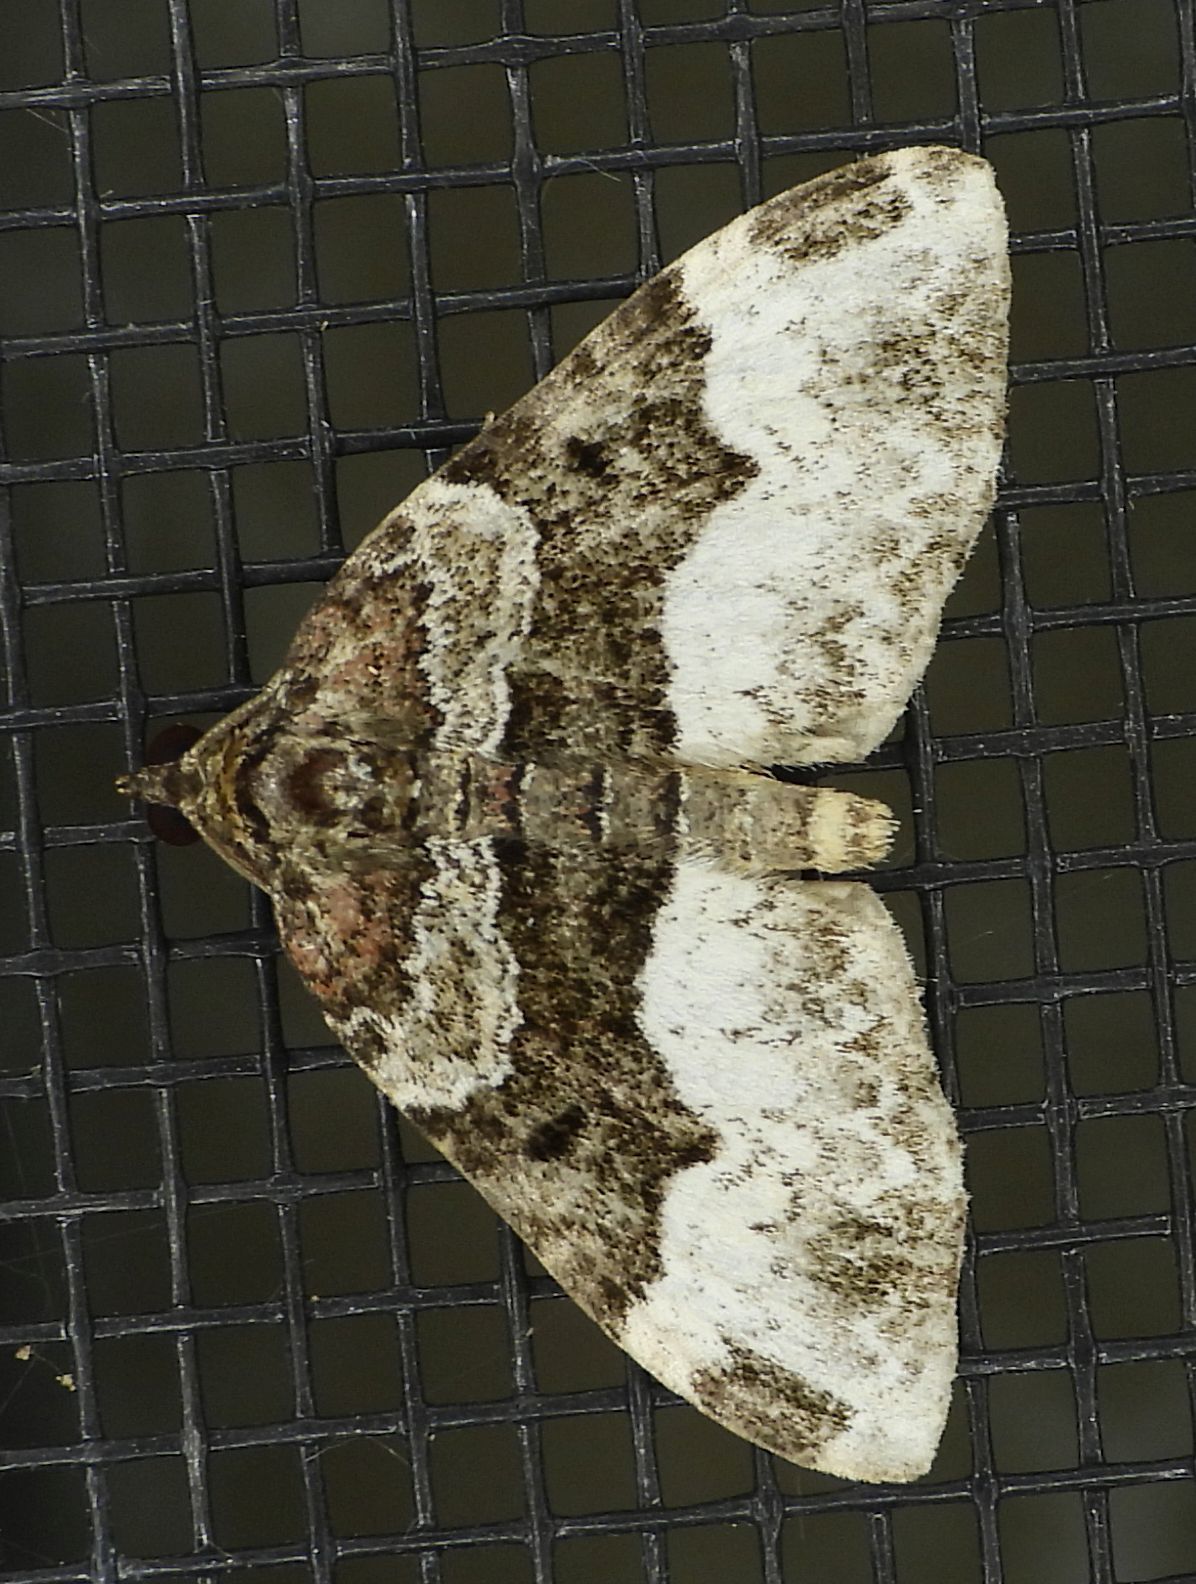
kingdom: Animalia
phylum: Arthropoda
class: Insecta
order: Lepidoptera
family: Geometridae
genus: Euphyia
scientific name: Euphyia intermediata
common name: Sharp-angled carpet
